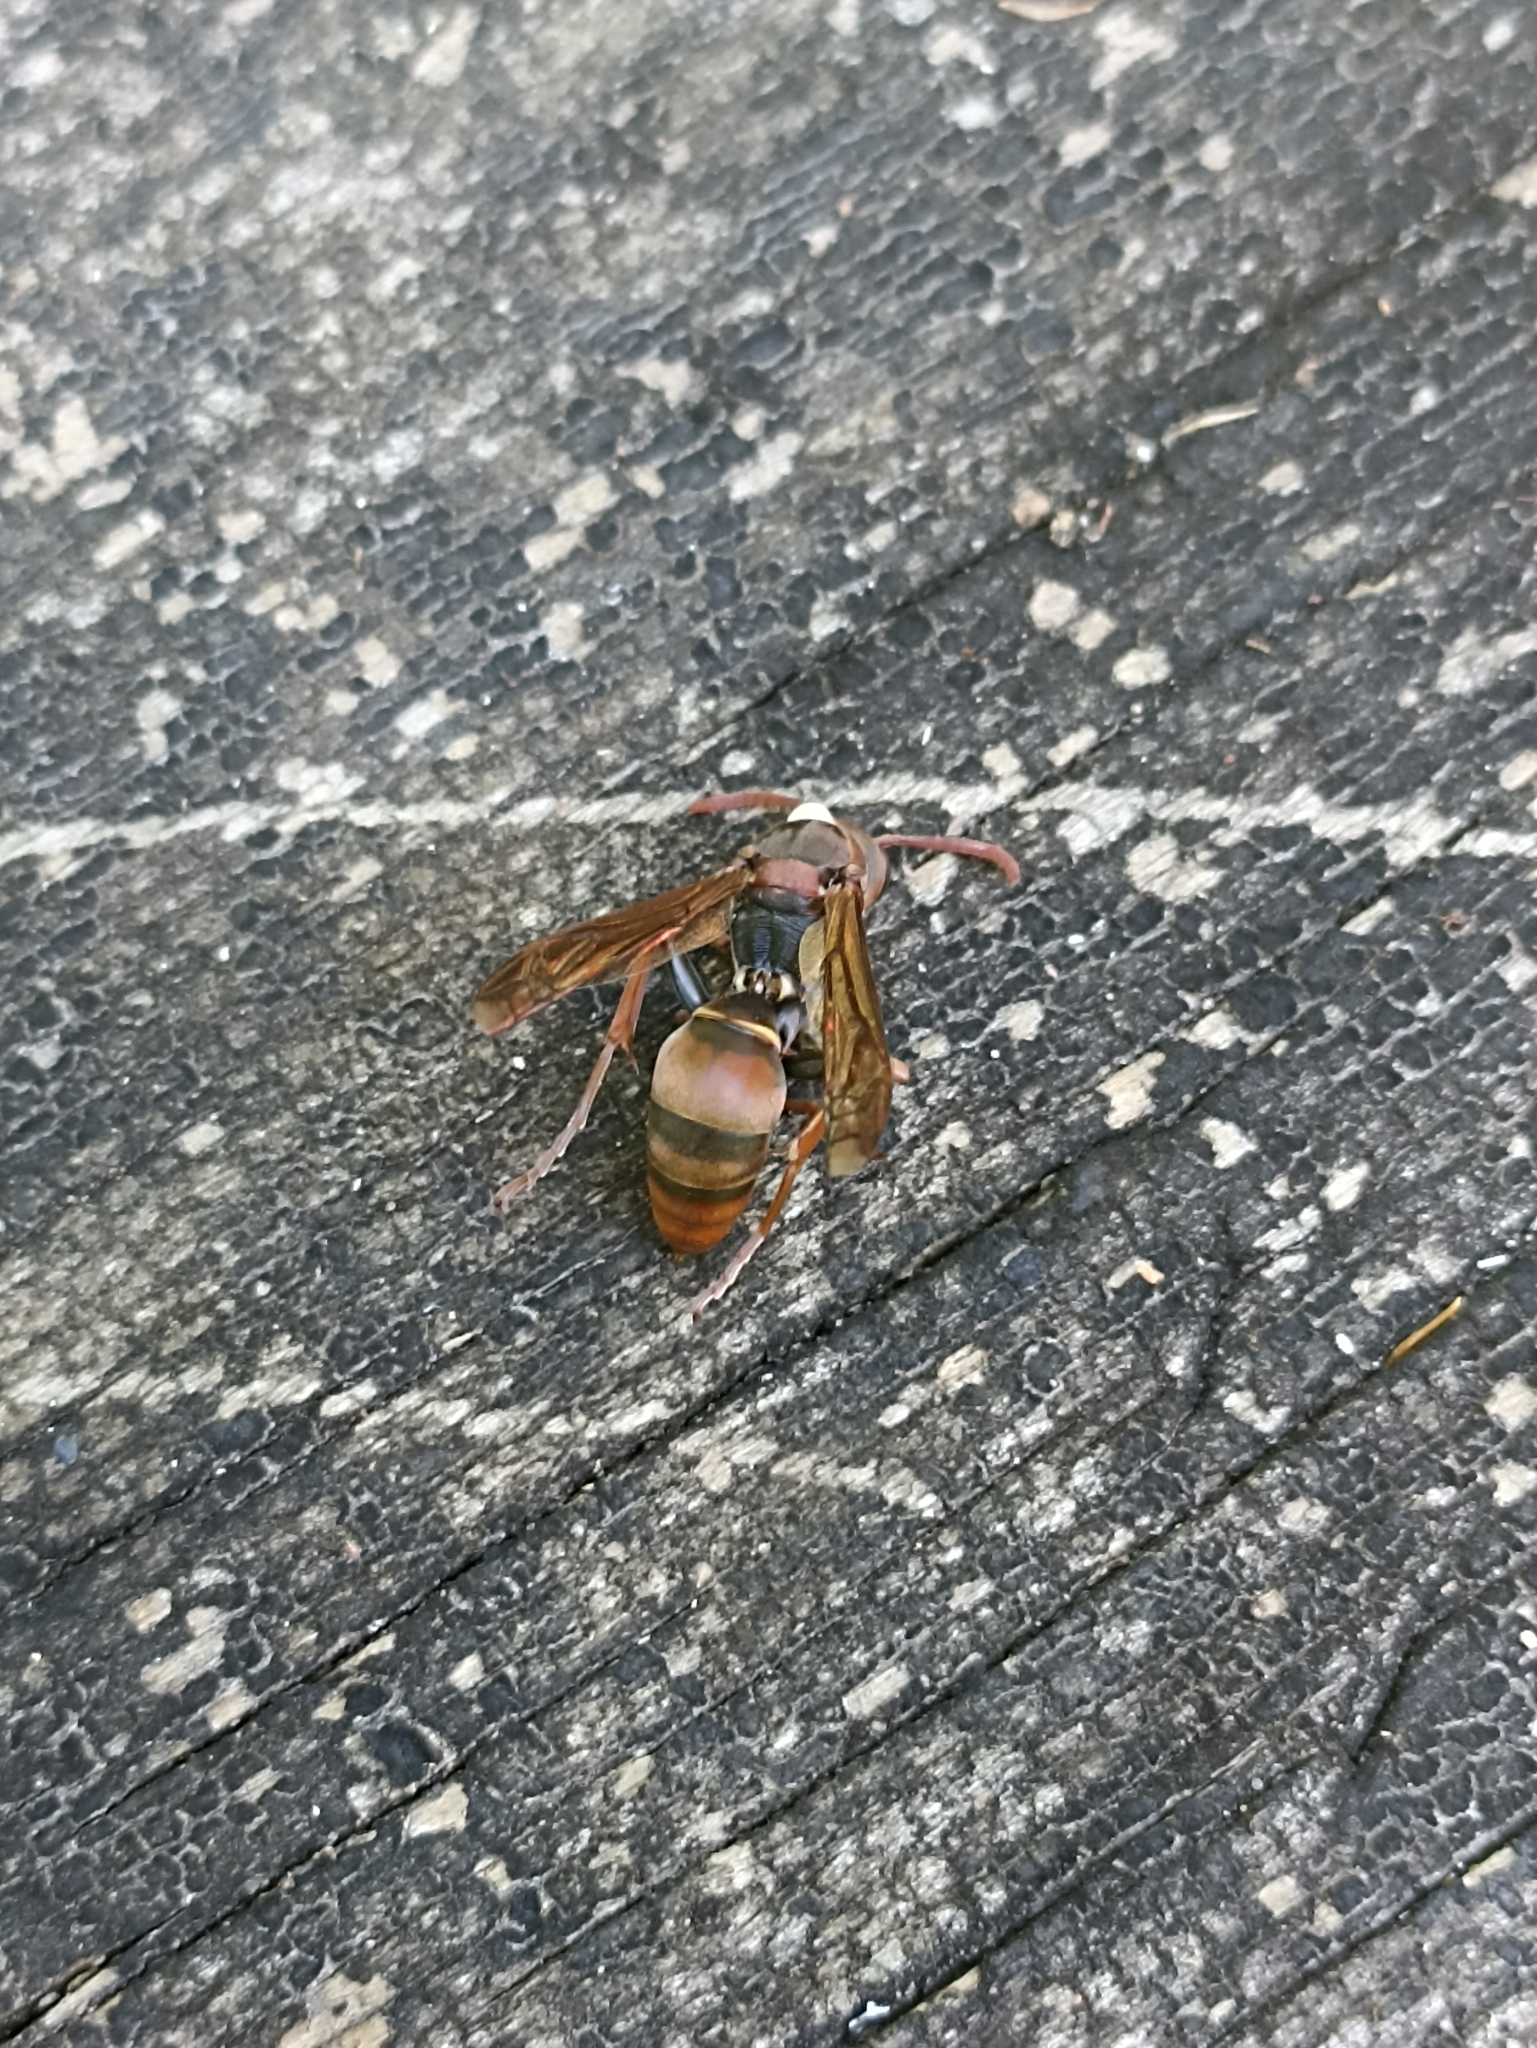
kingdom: Animalia
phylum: Arthropoda
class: Insecta
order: Hymenoptera
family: Eumenidae
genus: Polistes
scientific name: Polistes humilis
